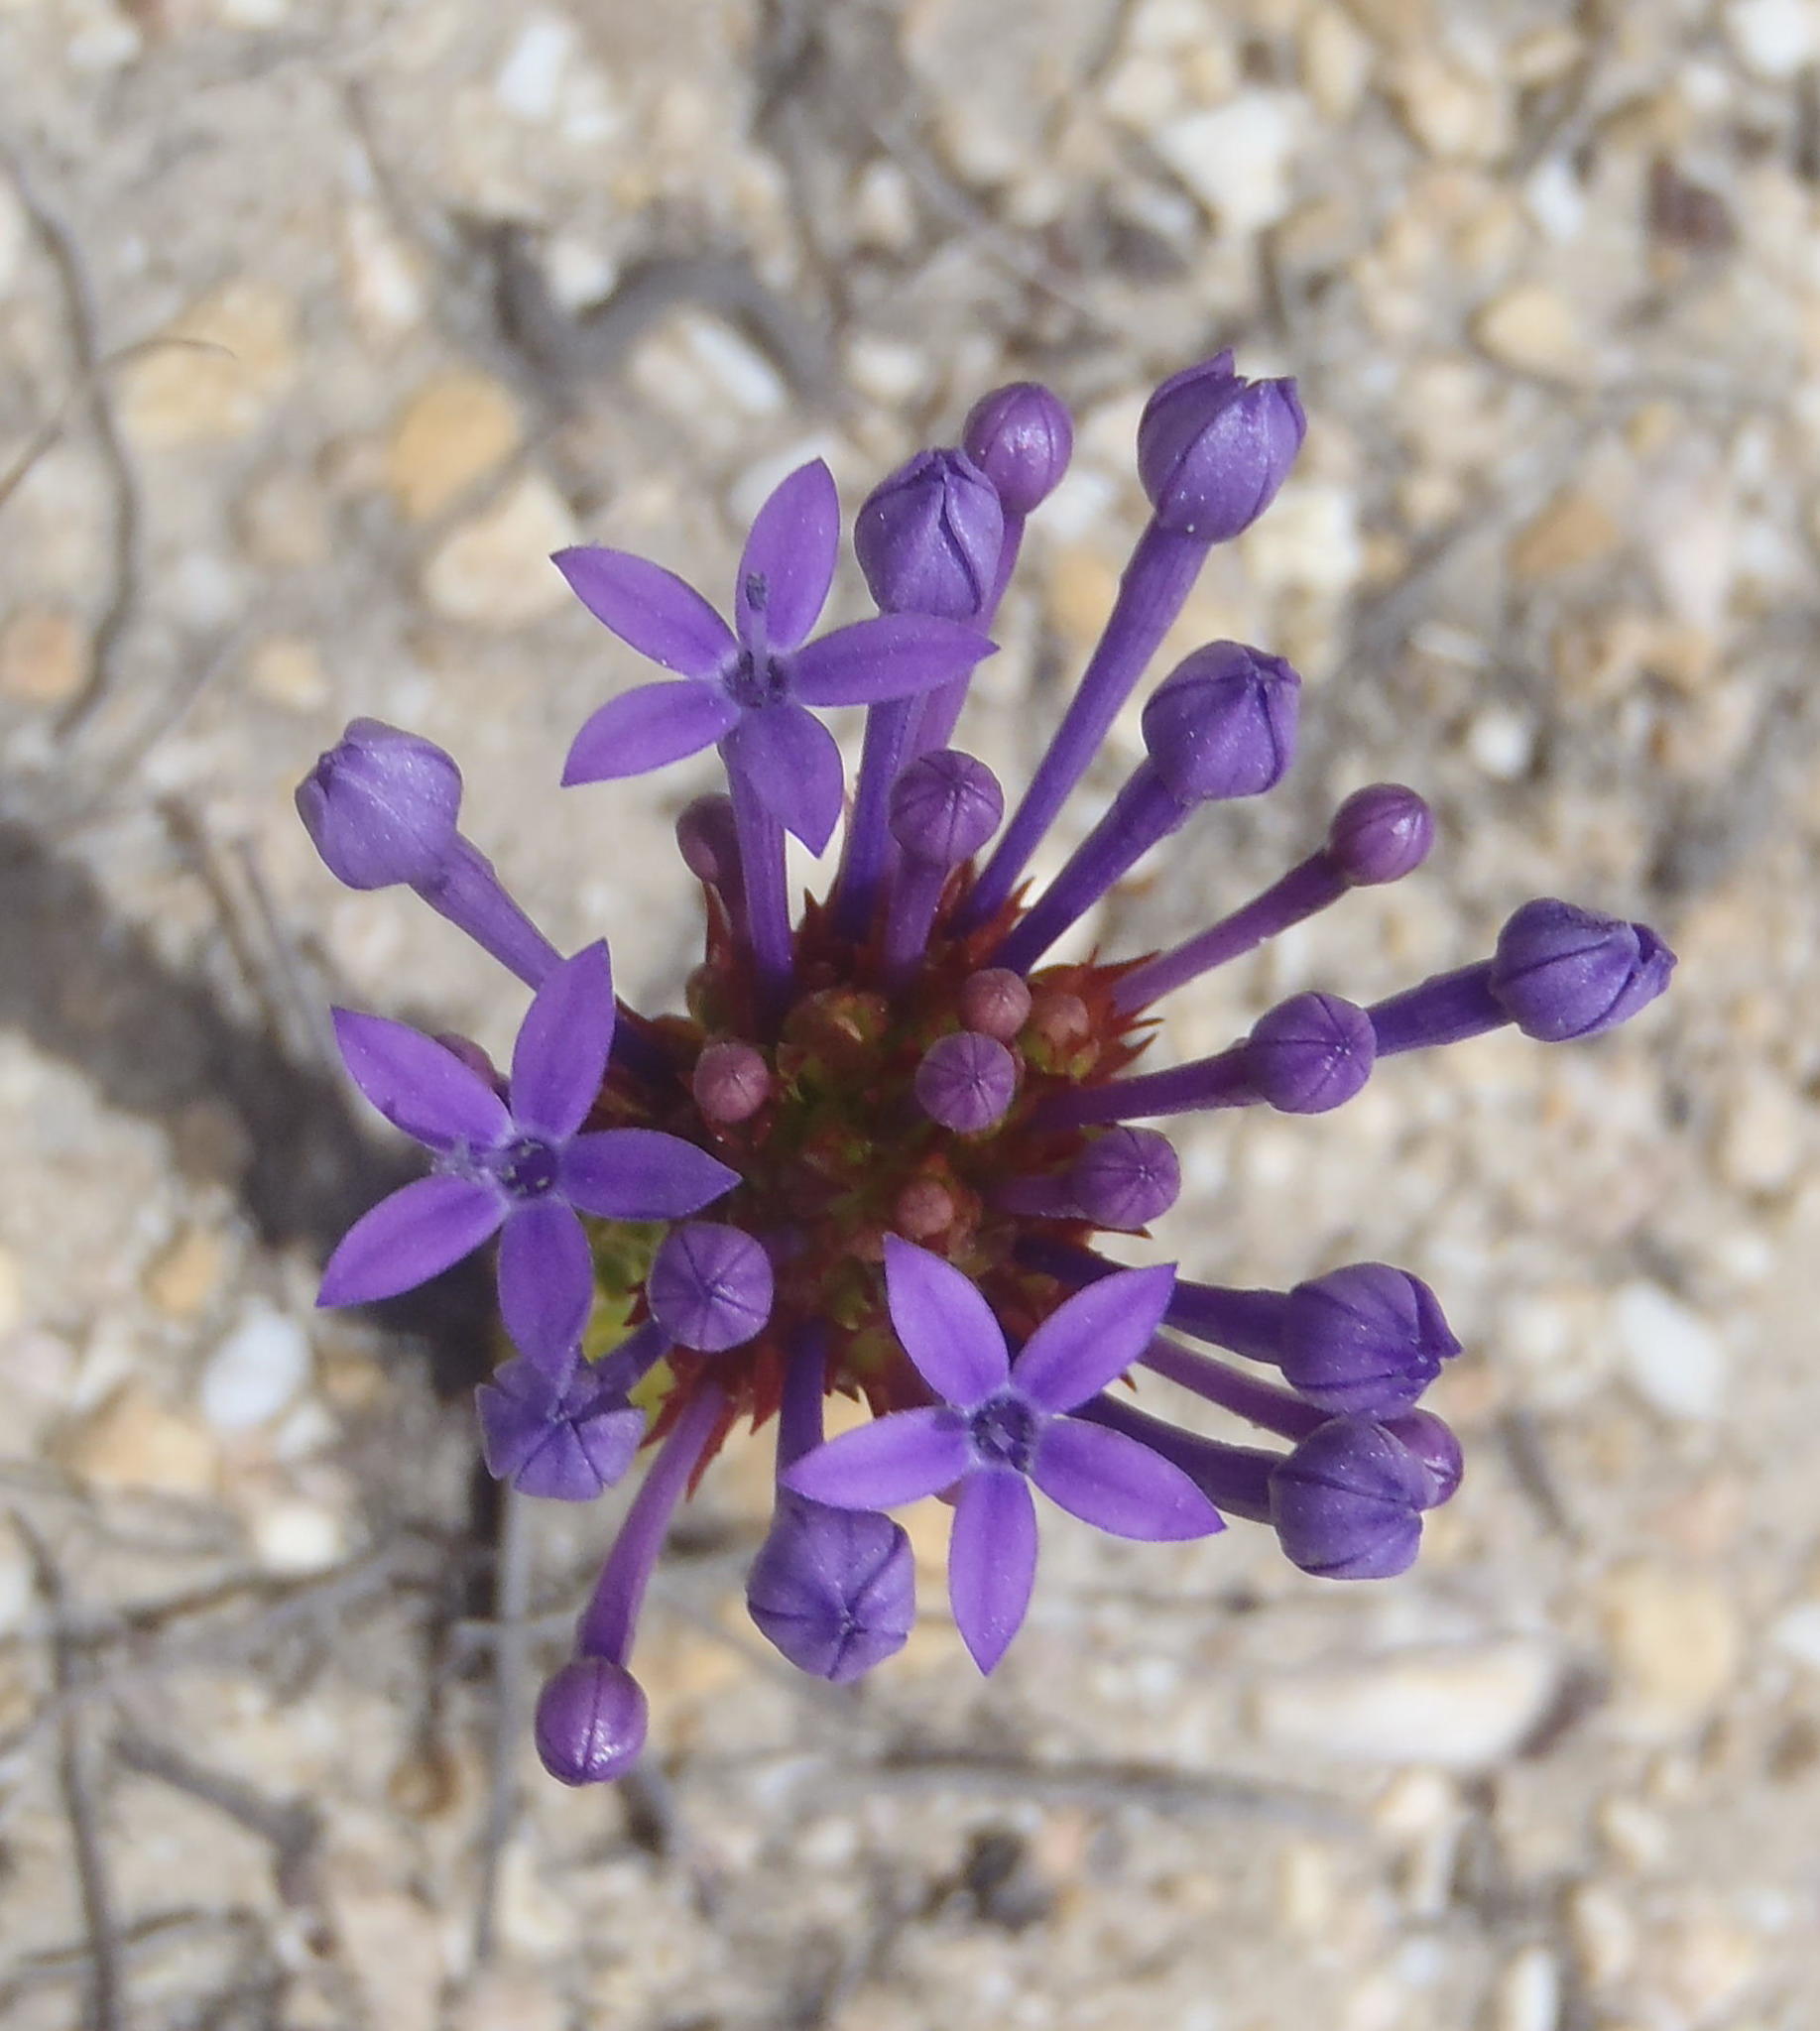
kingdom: Plantae
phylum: Tracheophyta
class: Magnoliopsida
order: Asterales
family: Campanulaceae
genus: Rhigiophyllum
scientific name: Rhigiophyllum squarrosum
